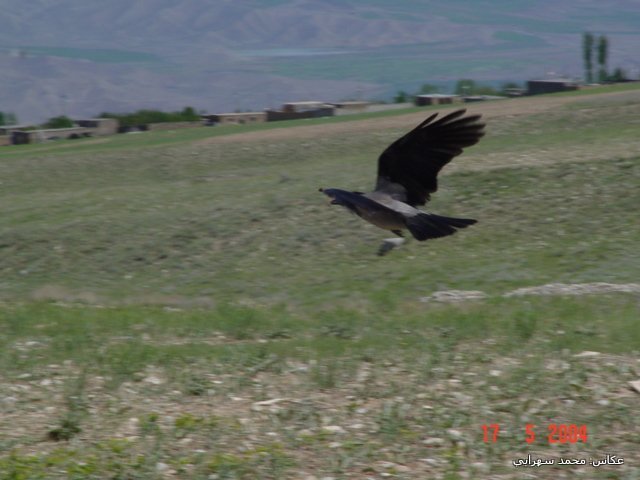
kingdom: Animalia
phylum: Chordata
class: Aves
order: Passeriformes
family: Corvidae
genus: Corvus
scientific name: Corvus cornix
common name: Hooded crow
